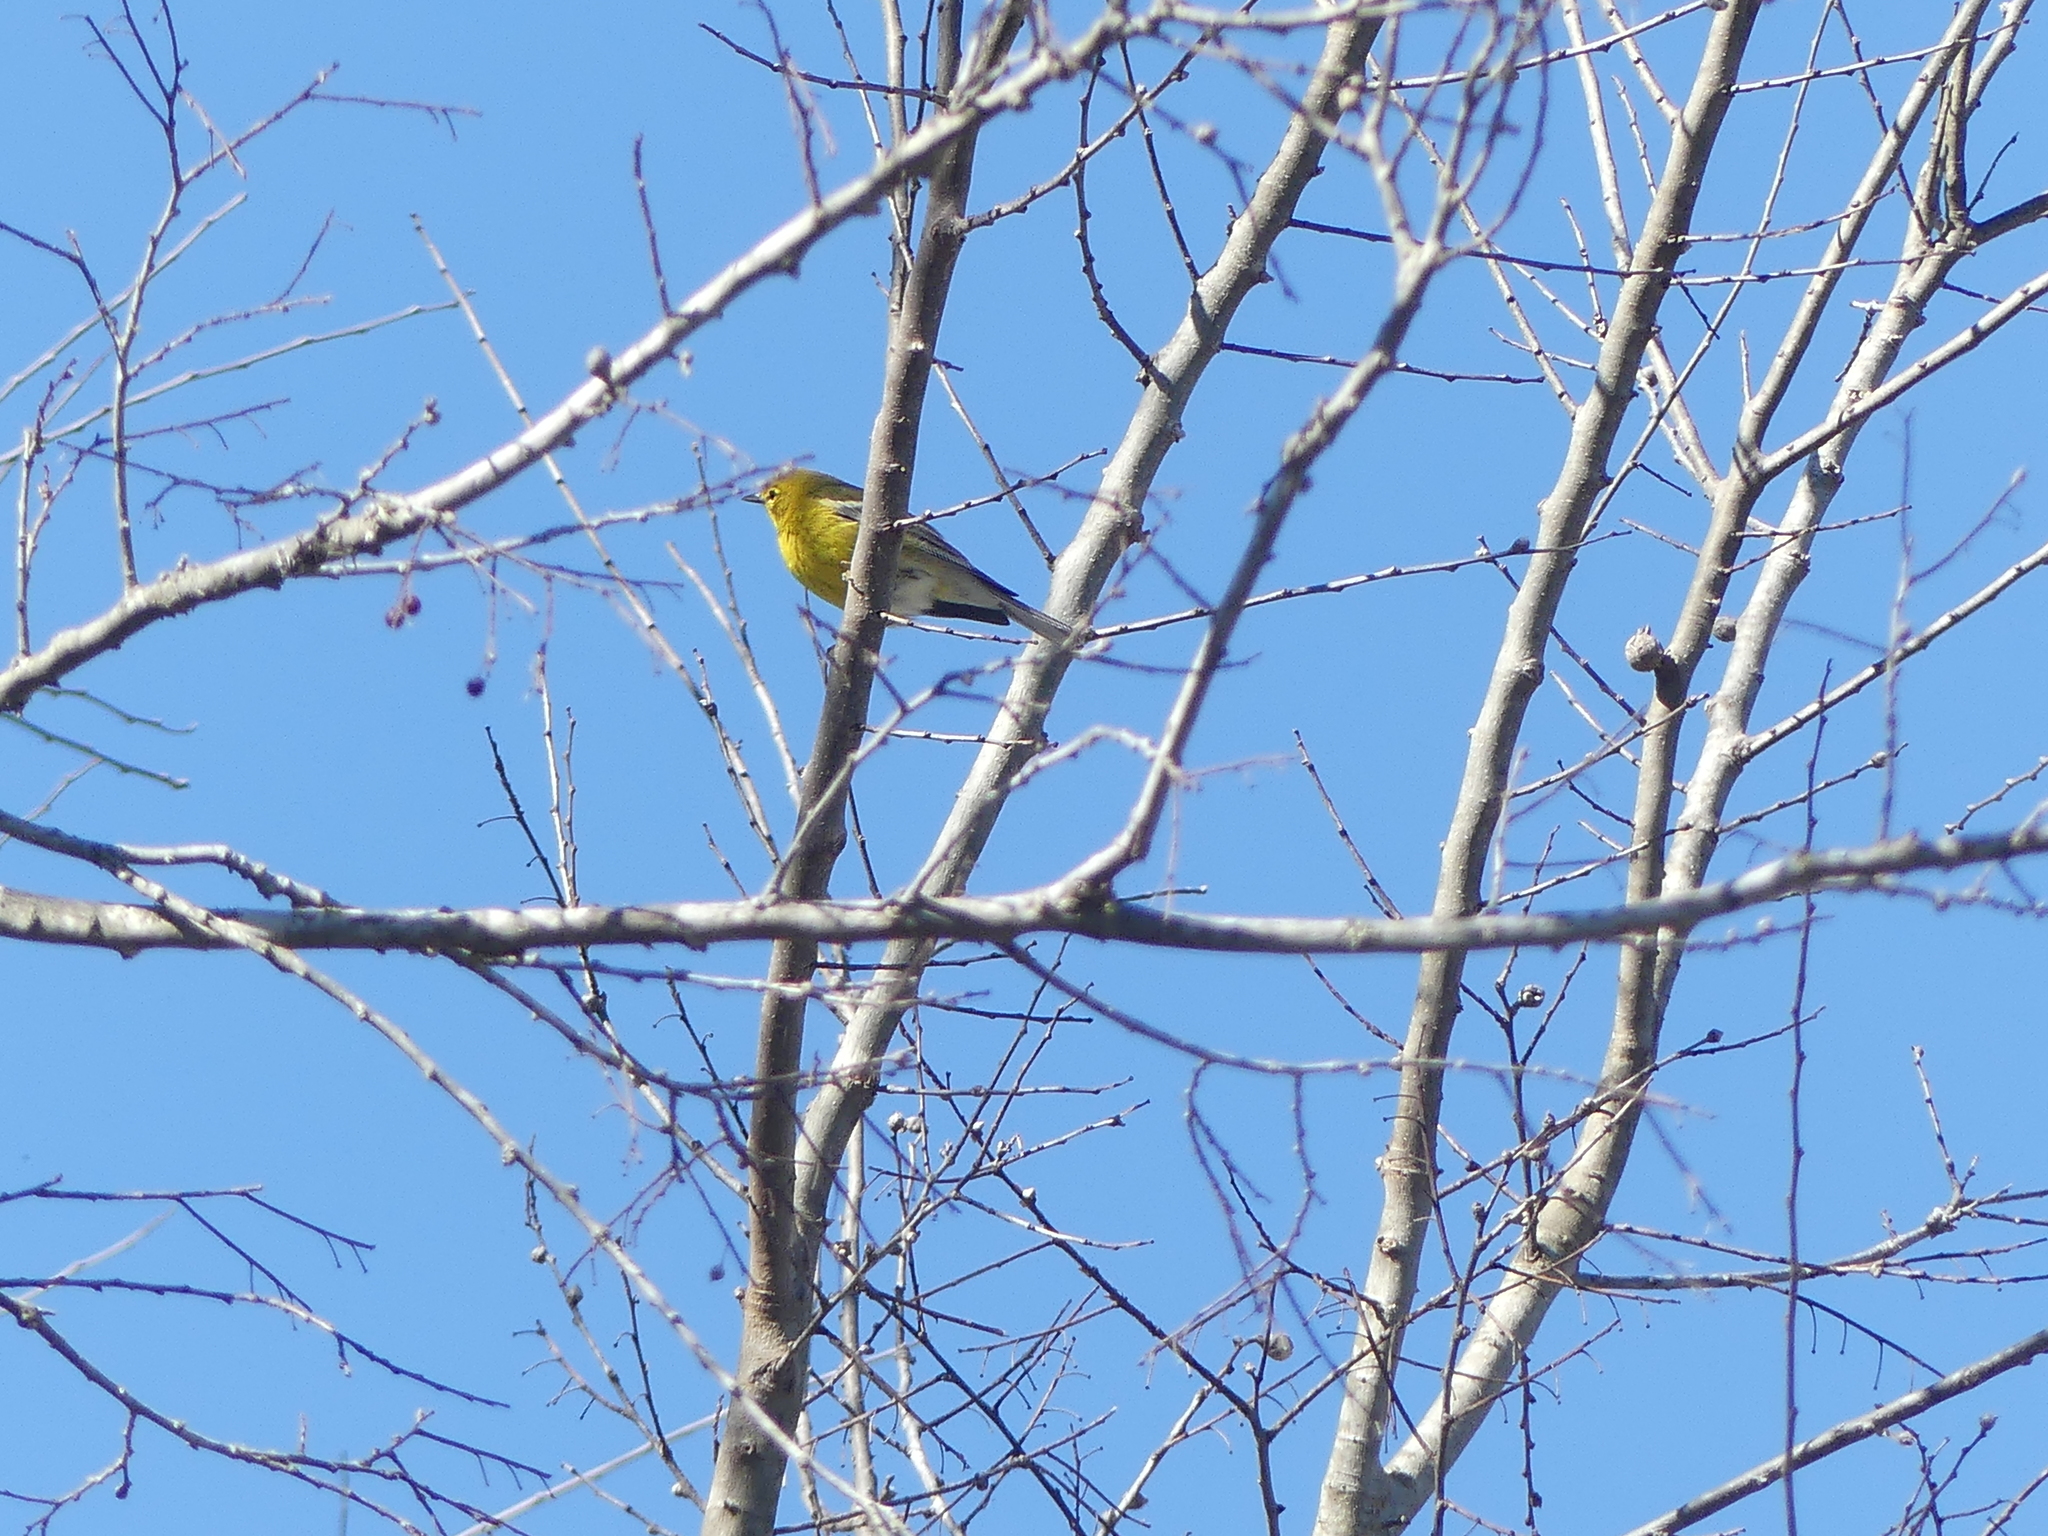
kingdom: Animalia
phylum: Chordata
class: Aves
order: Passeriformes
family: Parulidae
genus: Setophaga
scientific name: Setophaga pinus
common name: Pine warbler
